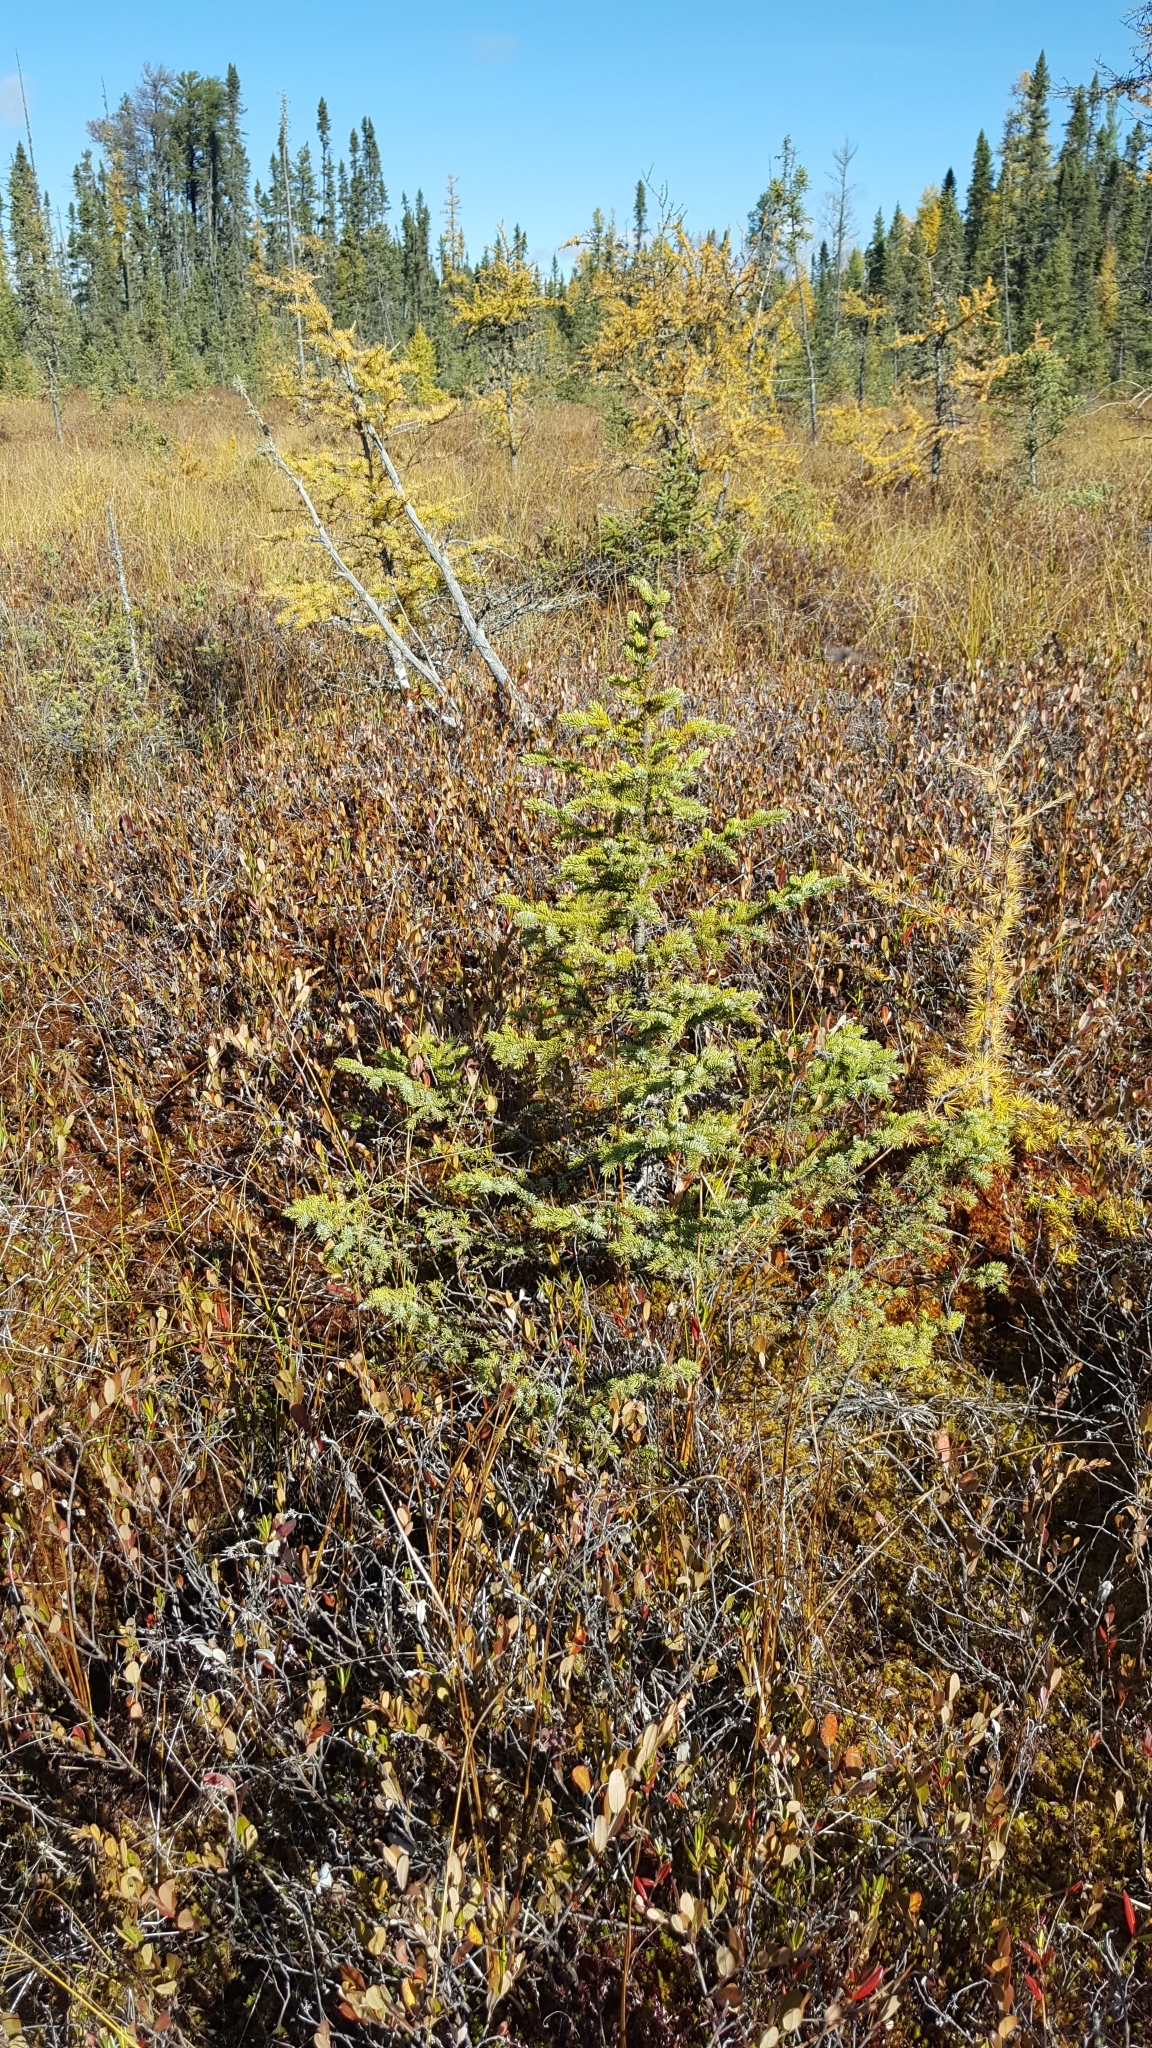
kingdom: Plantae
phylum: Tracheophyta
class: Pinopsida
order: Pinales
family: Pinaceae
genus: Picea
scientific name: Picea mariana
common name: Black spruce
